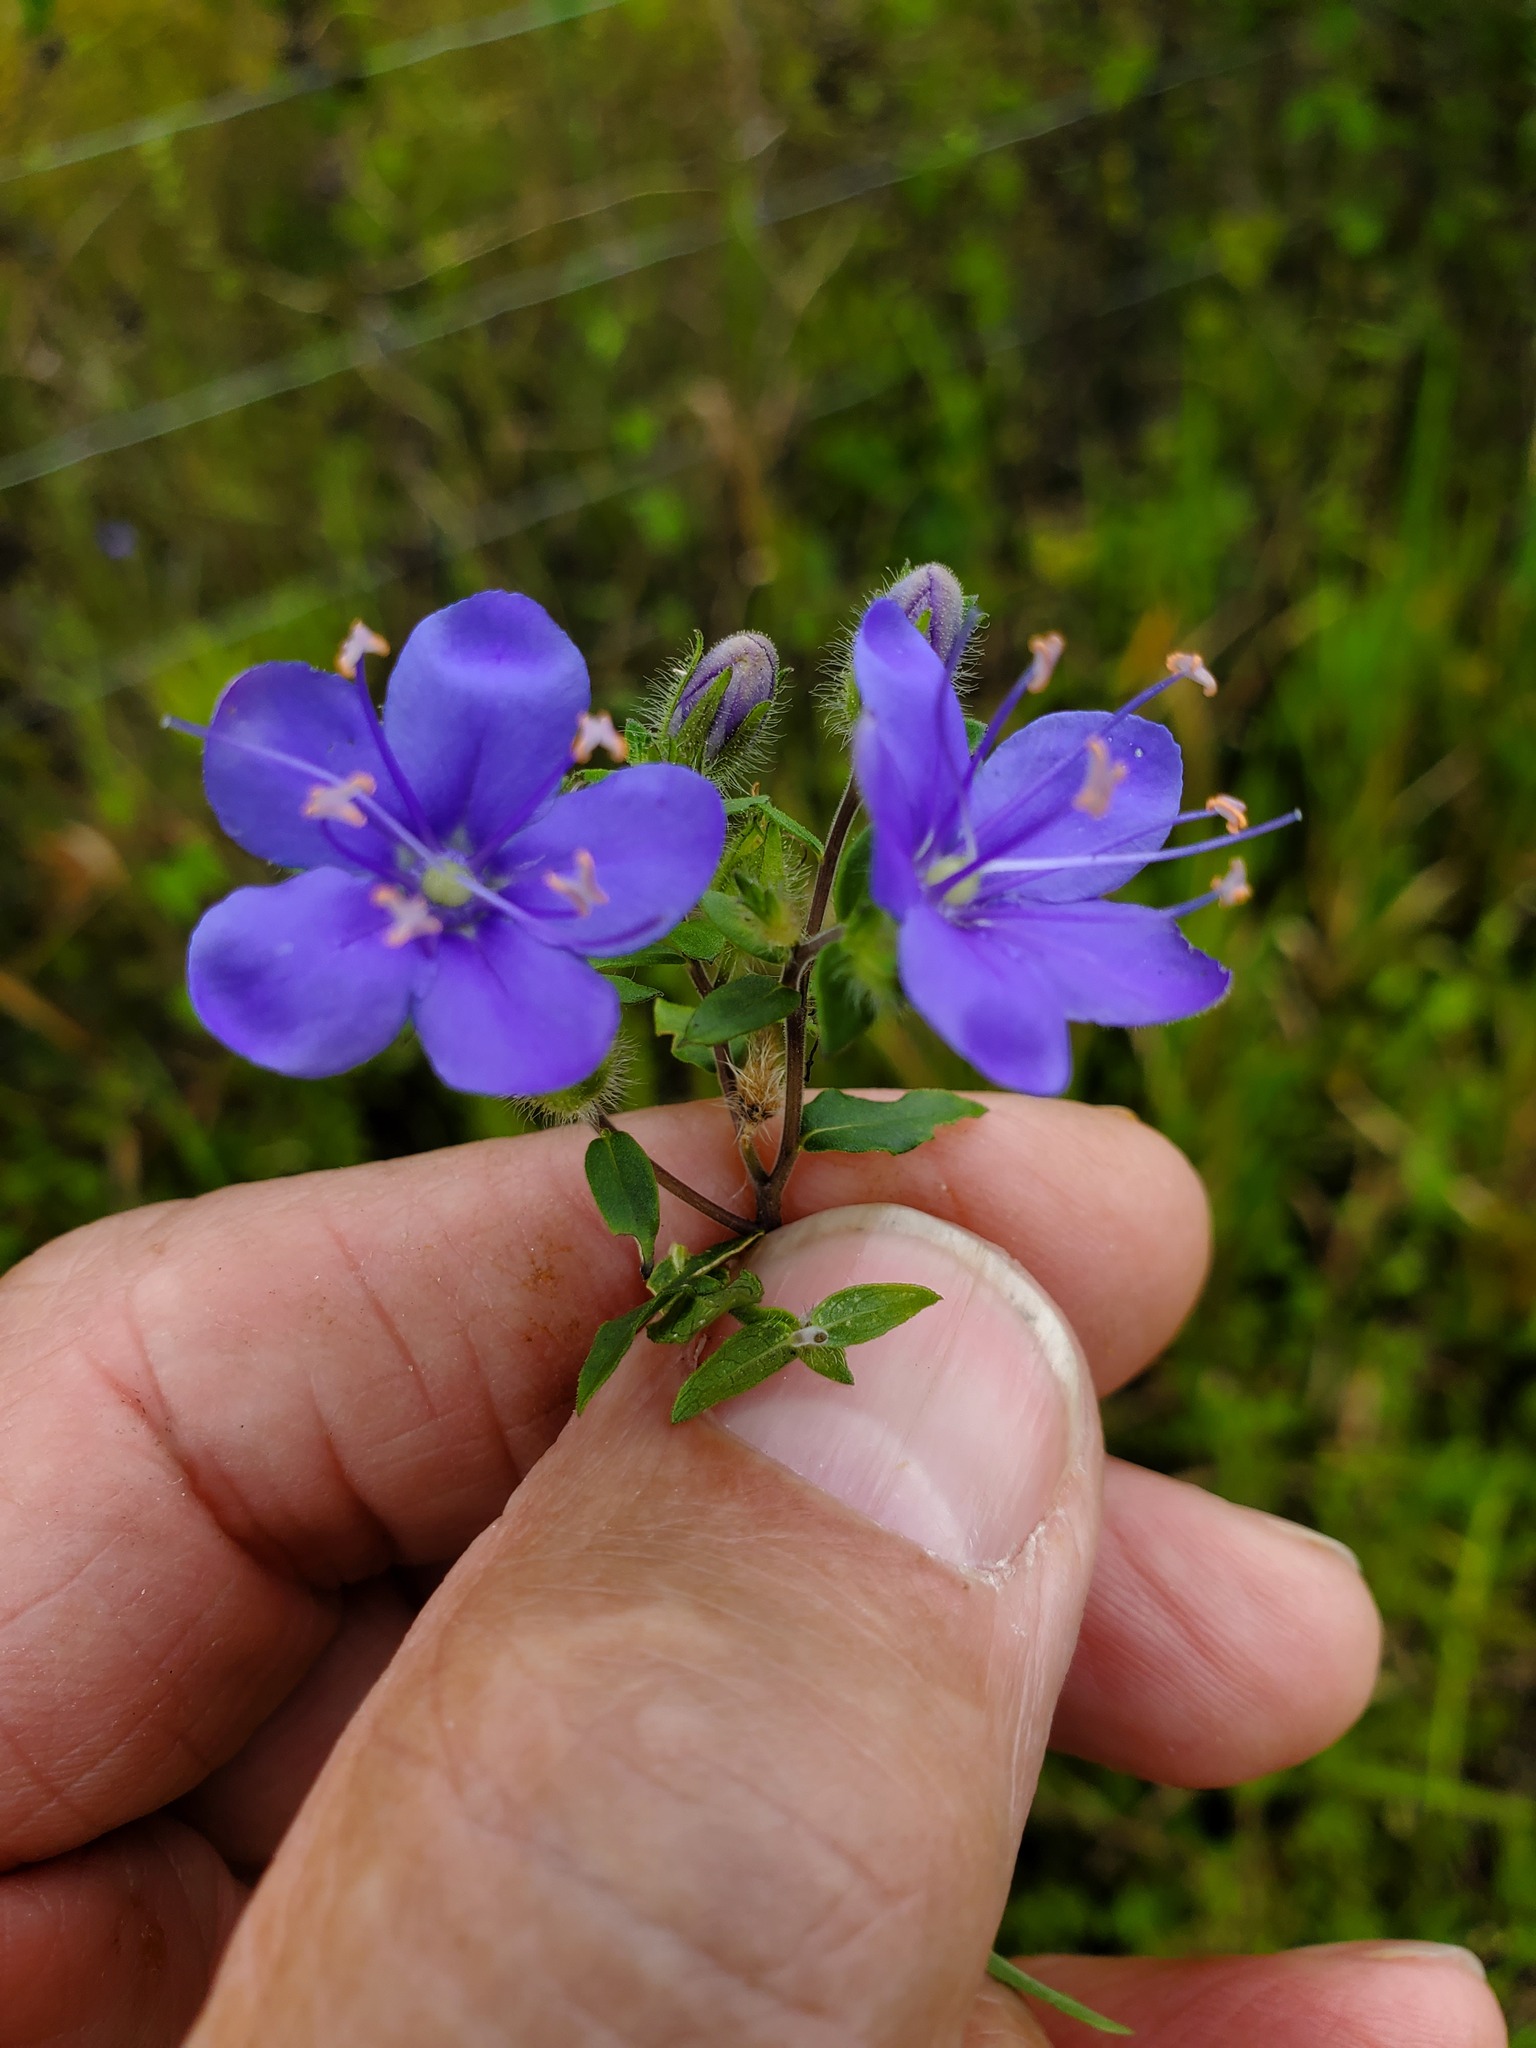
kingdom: Plantae
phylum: Tracheophyta
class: Magnoliopsida
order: Solanales
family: Hydroleaceae
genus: Hydrolea
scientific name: Hydrolea corymbosa
